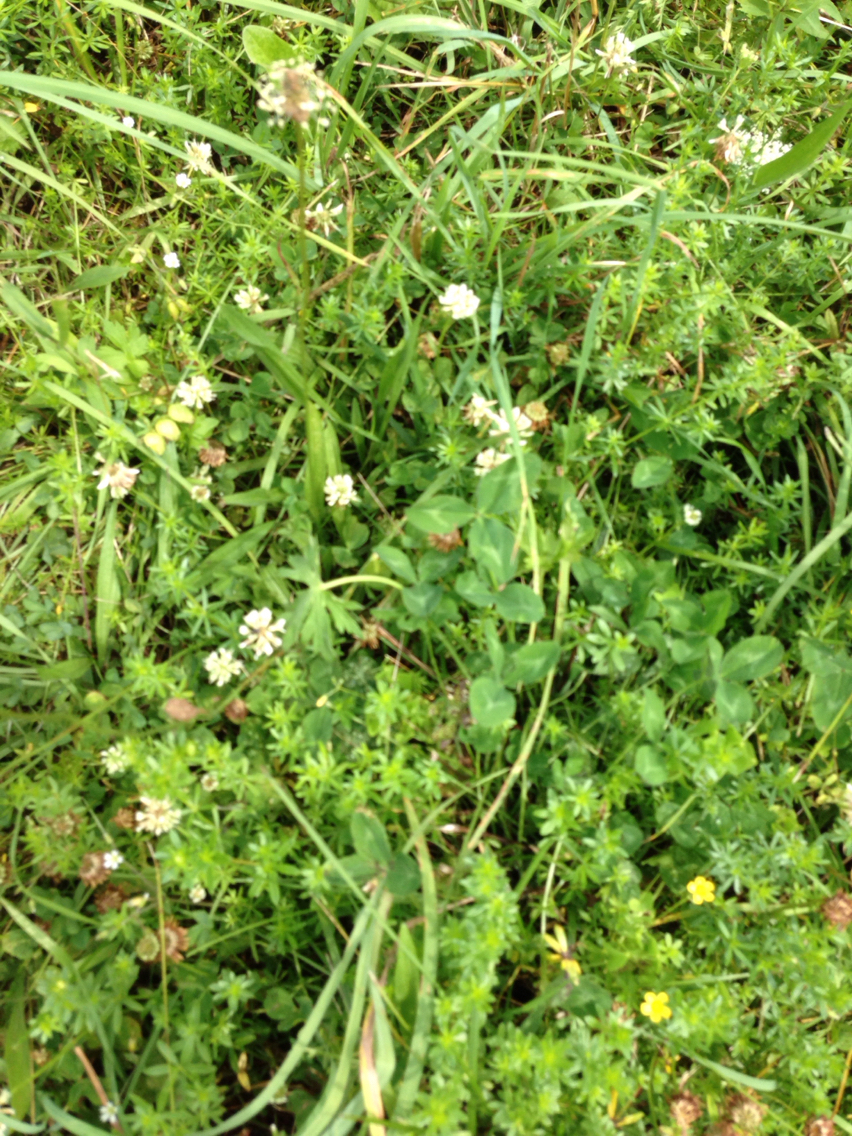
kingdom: Plantae
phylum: Tracheophyta
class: Magnoliopsida
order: Fabales
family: Fabaceae
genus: Trifolium
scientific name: Trifolium repens
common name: White clover
